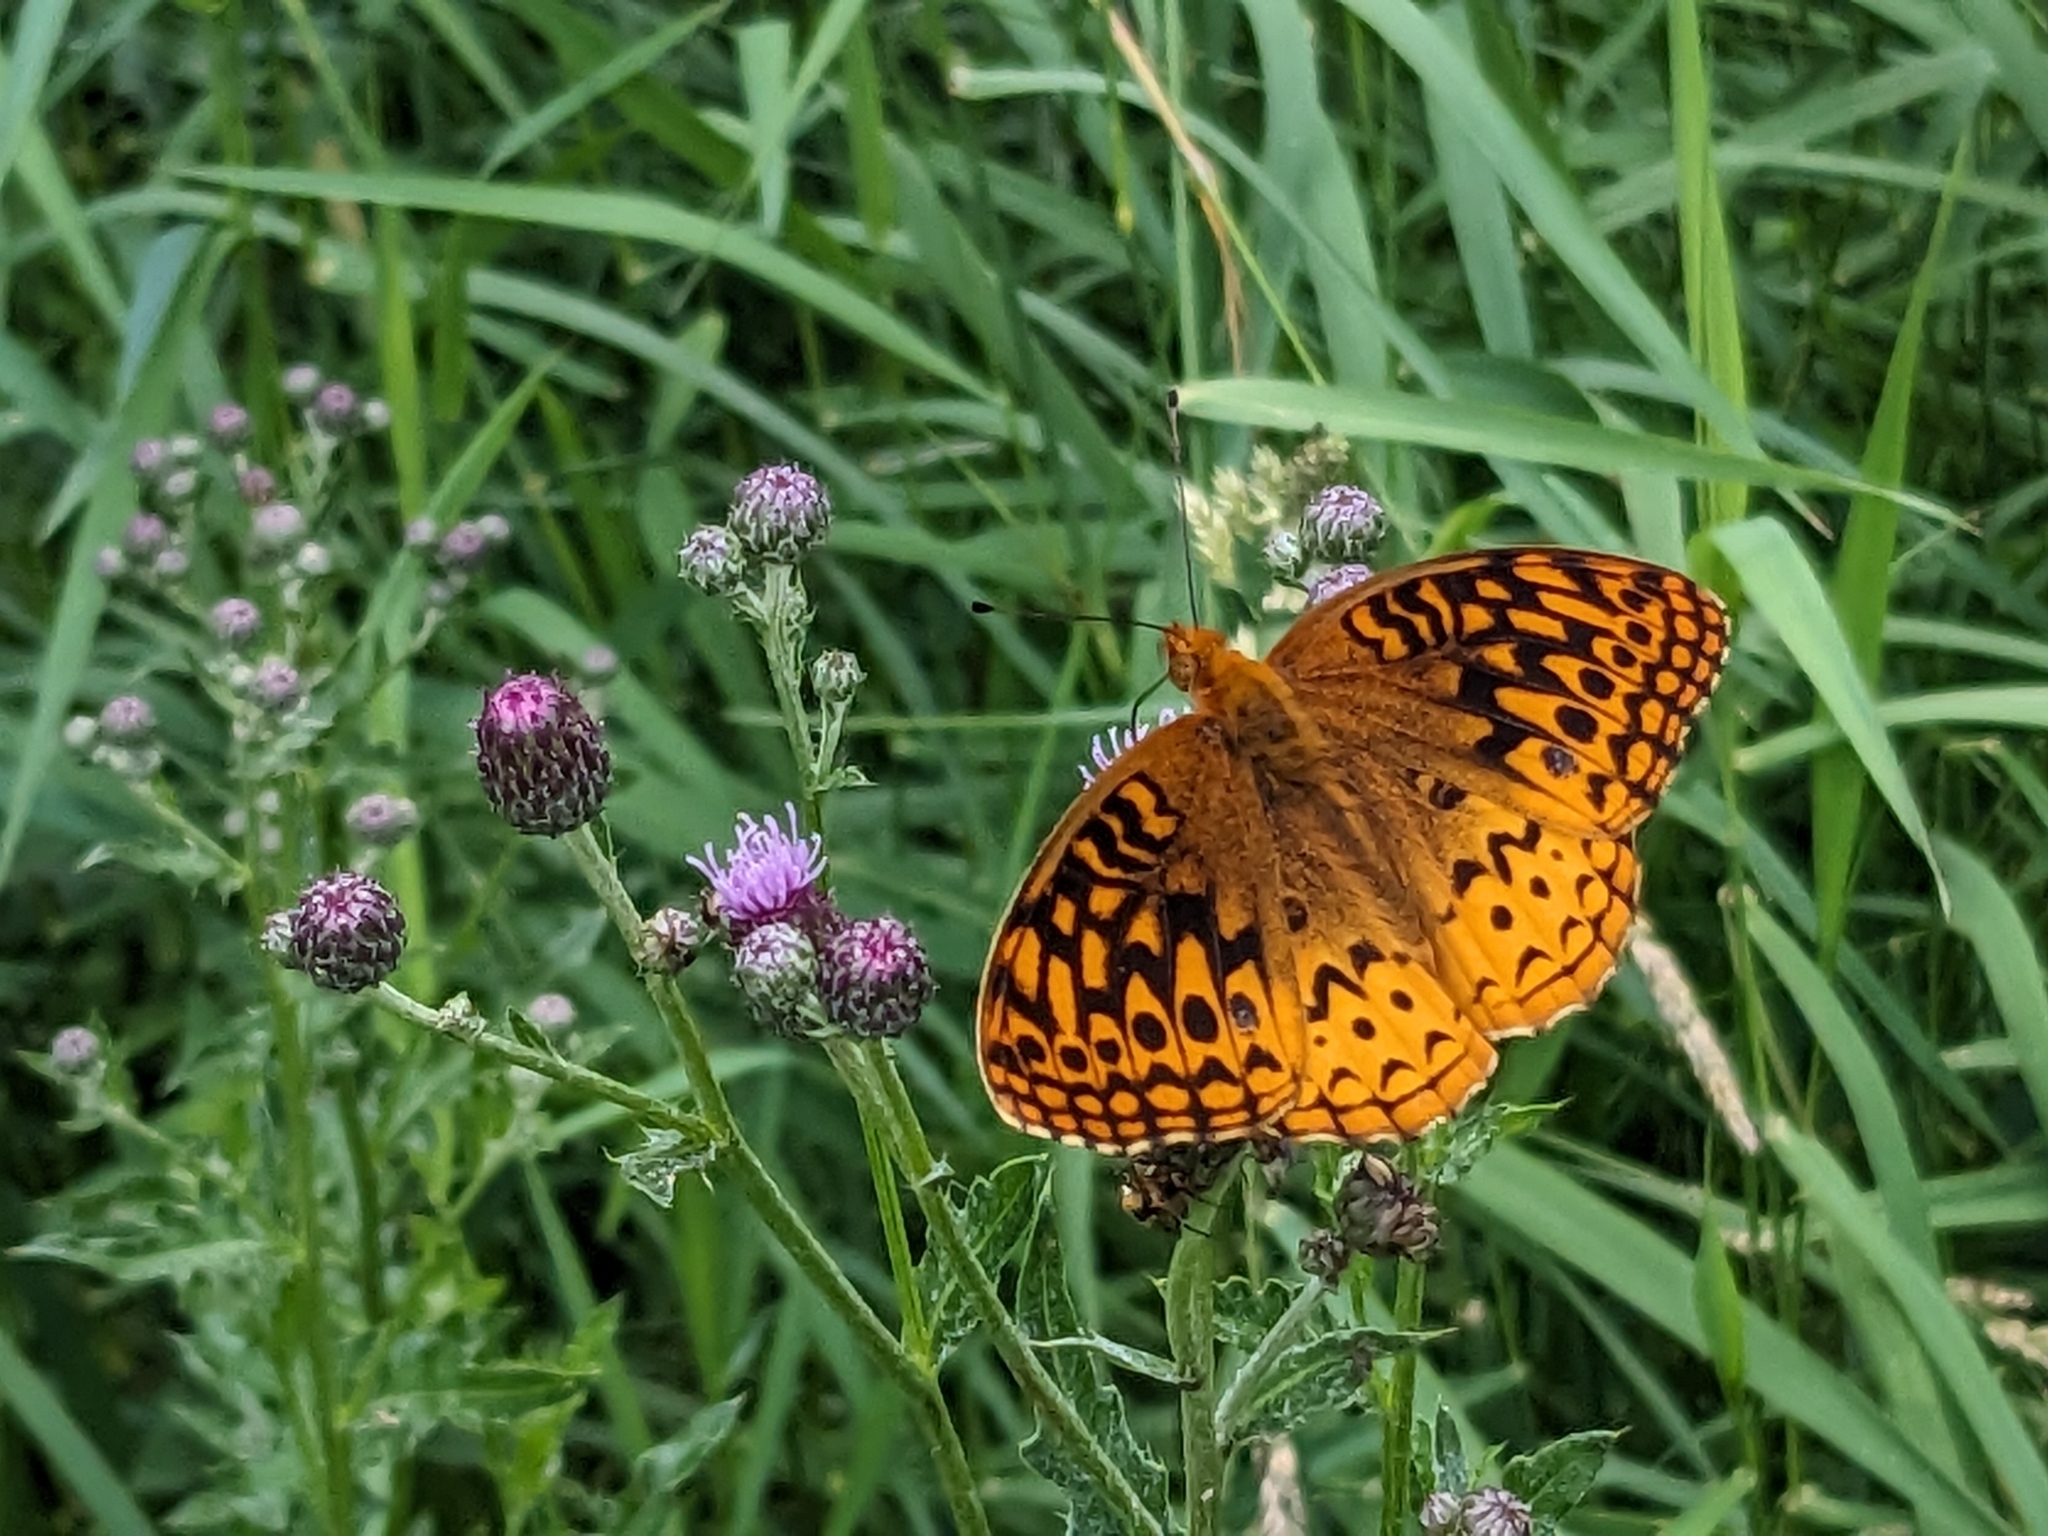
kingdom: Animalia
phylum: Arthropoda
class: Insecta
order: Lepidoptera
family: Nymphalidae
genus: Speyeria
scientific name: Speyeria cybele
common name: Great spangled fritillary
